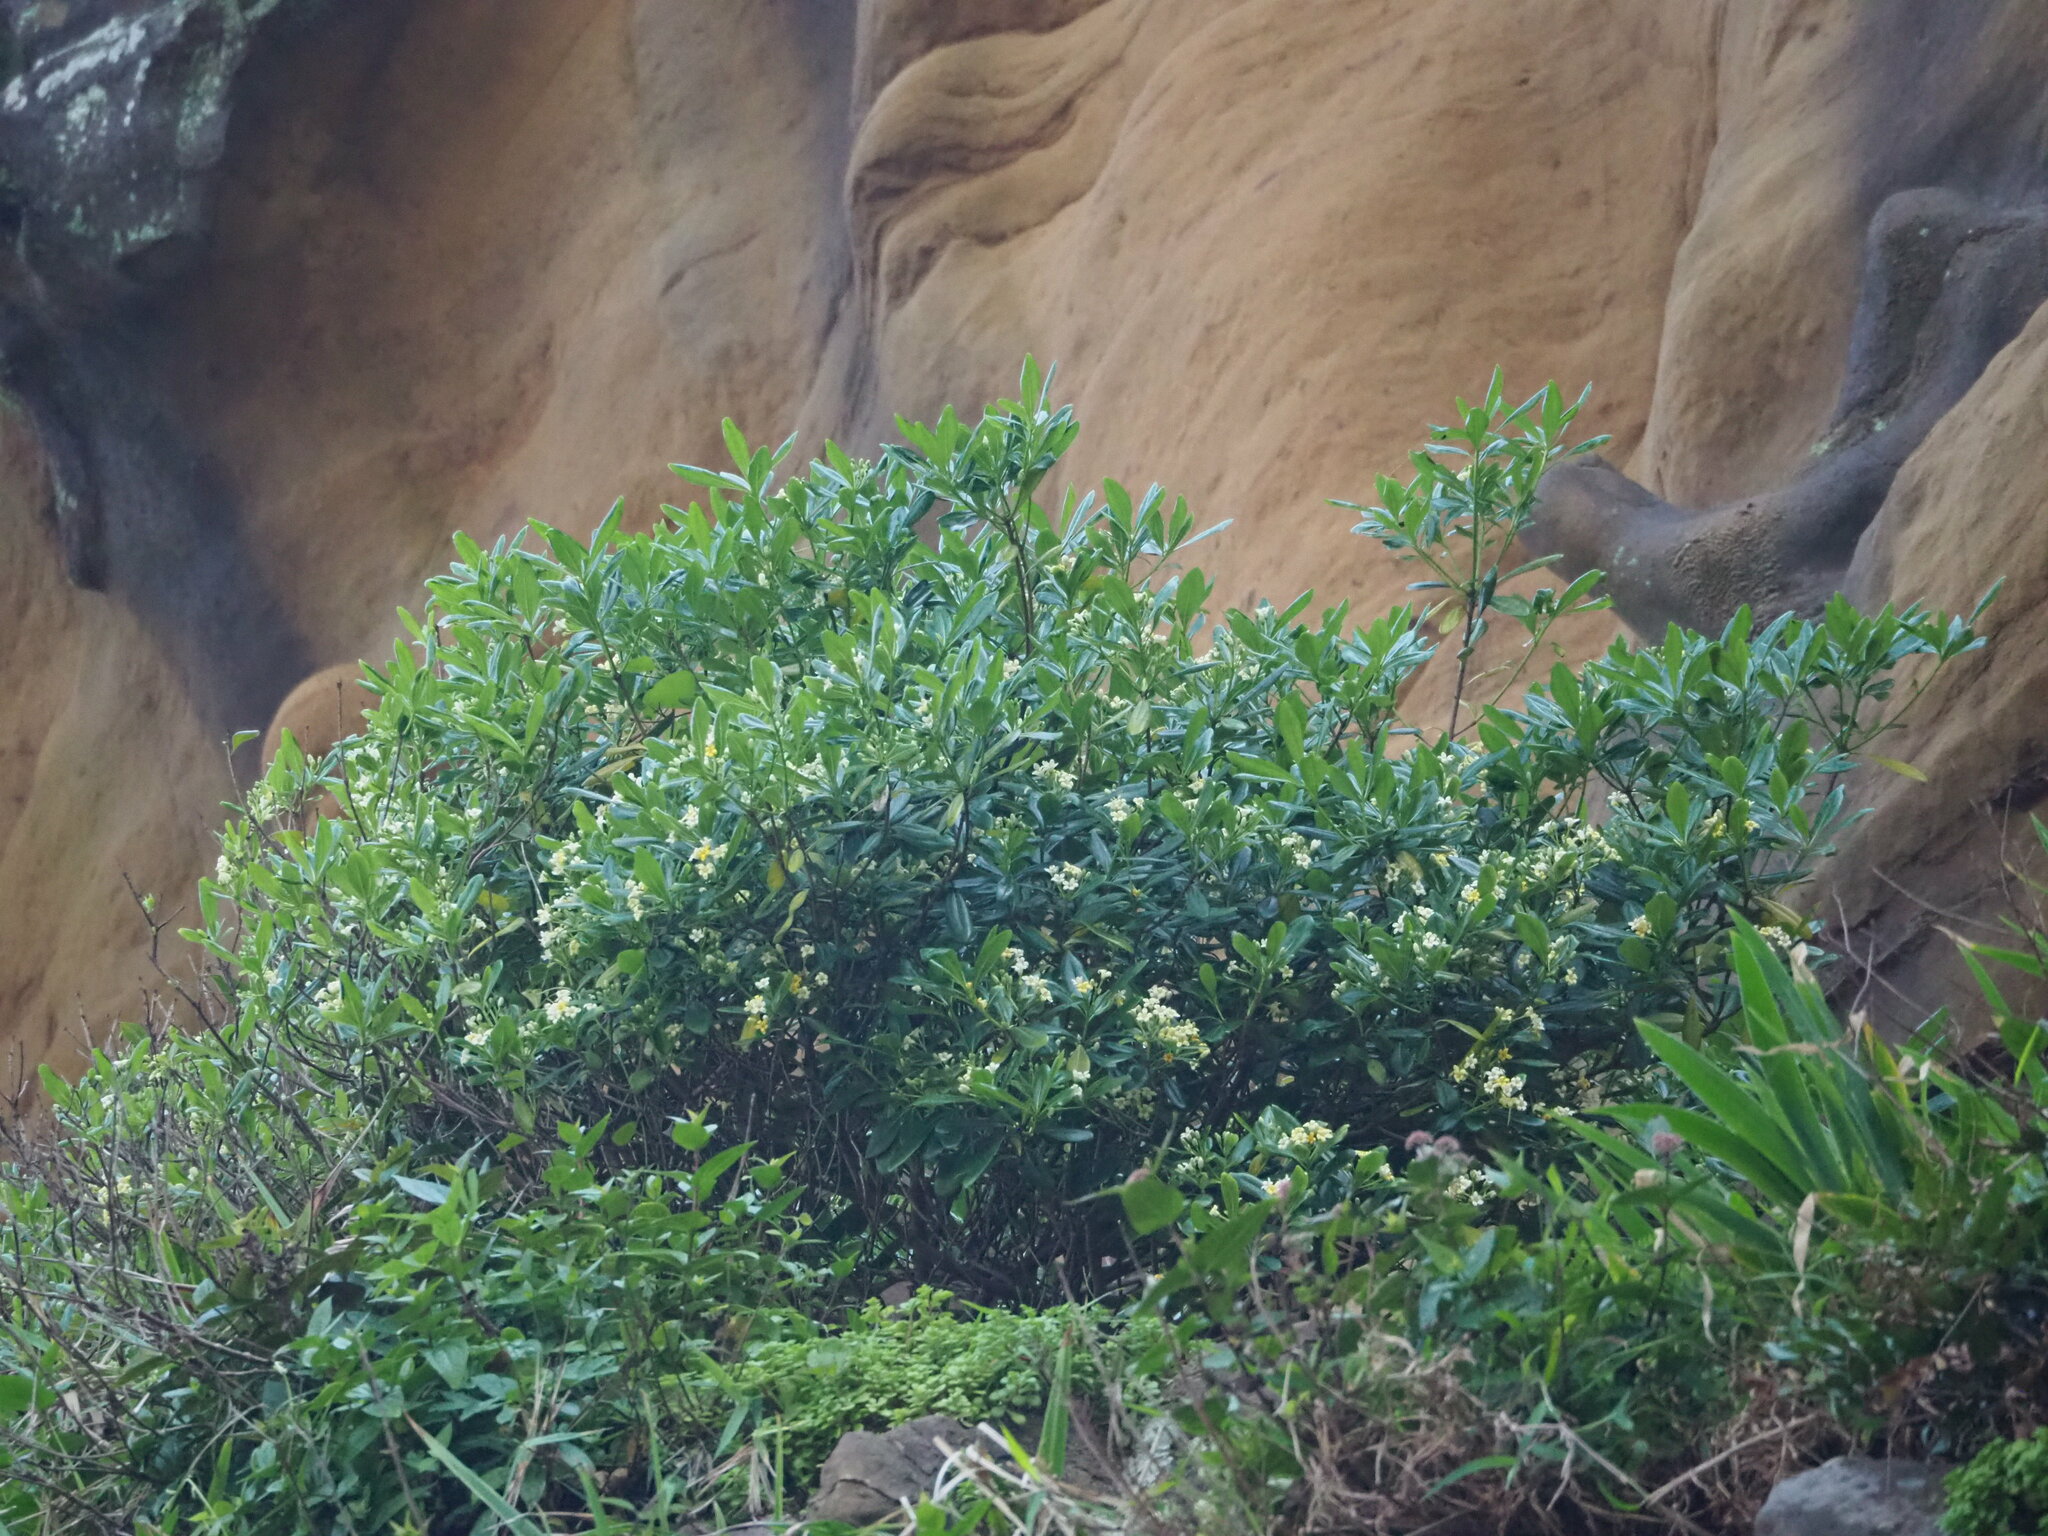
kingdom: Plantae
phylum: Tracheophyta
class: Magnoliopsida
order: Apiales
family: Pittosporaceae
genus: Pittosporum
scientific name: Pittosporum tobira
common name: Japanese cheesewood
